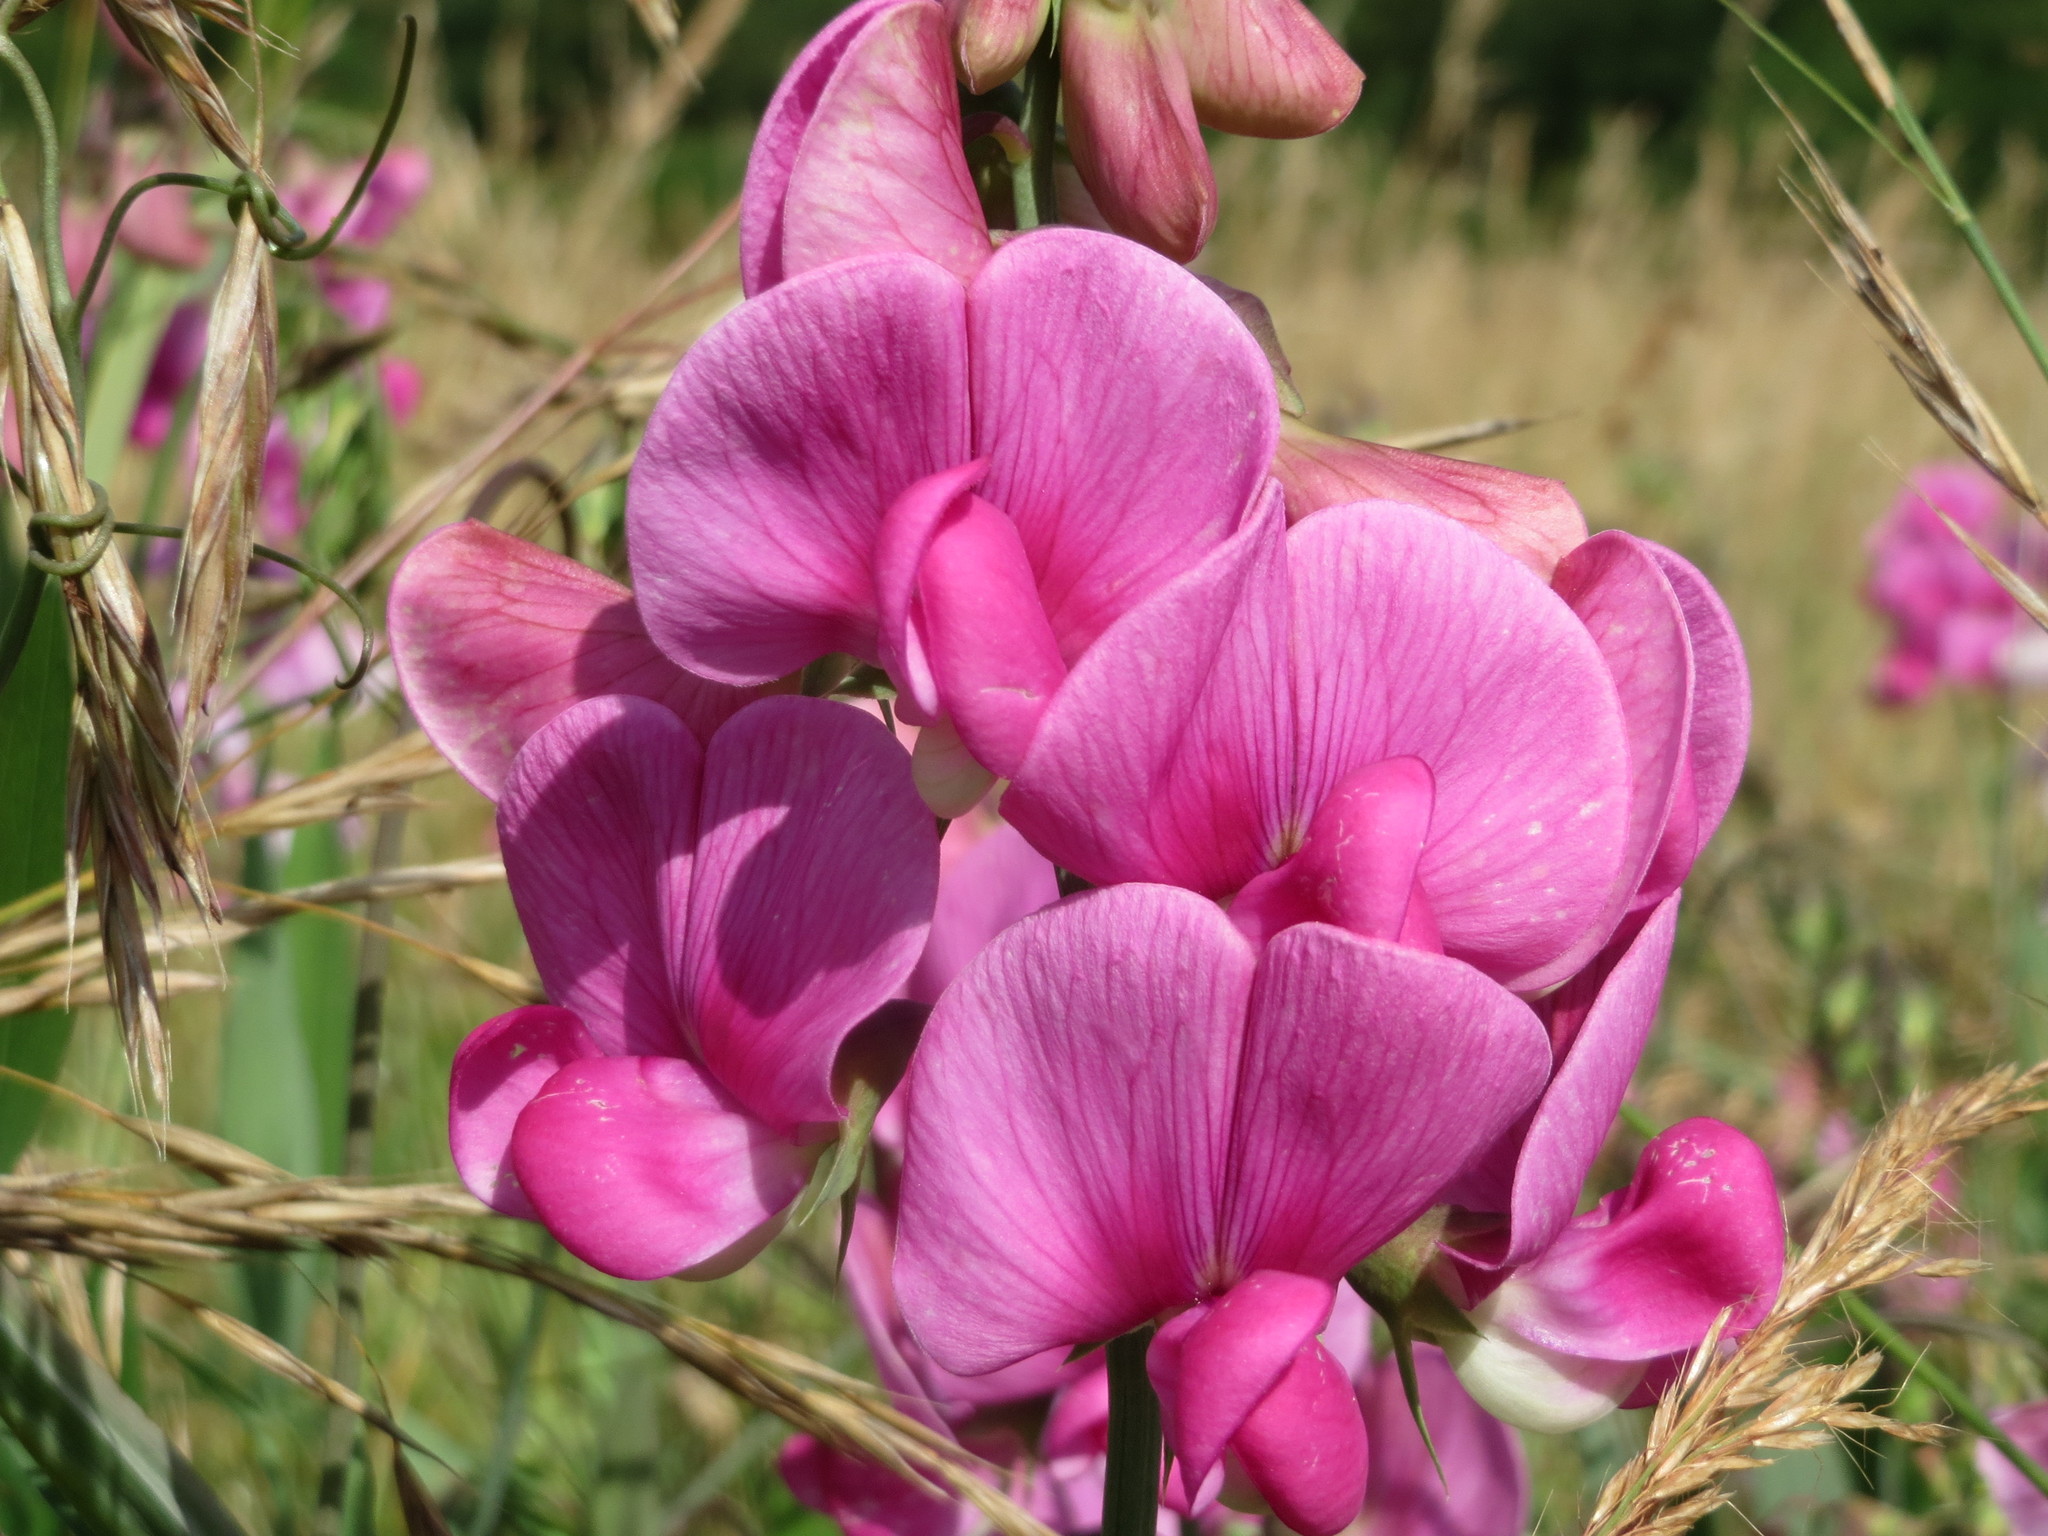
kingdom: Plantae
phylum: Tracheophyta
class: Magnoliopsida
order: Fabales
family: Fabaceae
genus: Lathyrus
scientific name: Lathyrus latifolius
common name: Perennial pea
